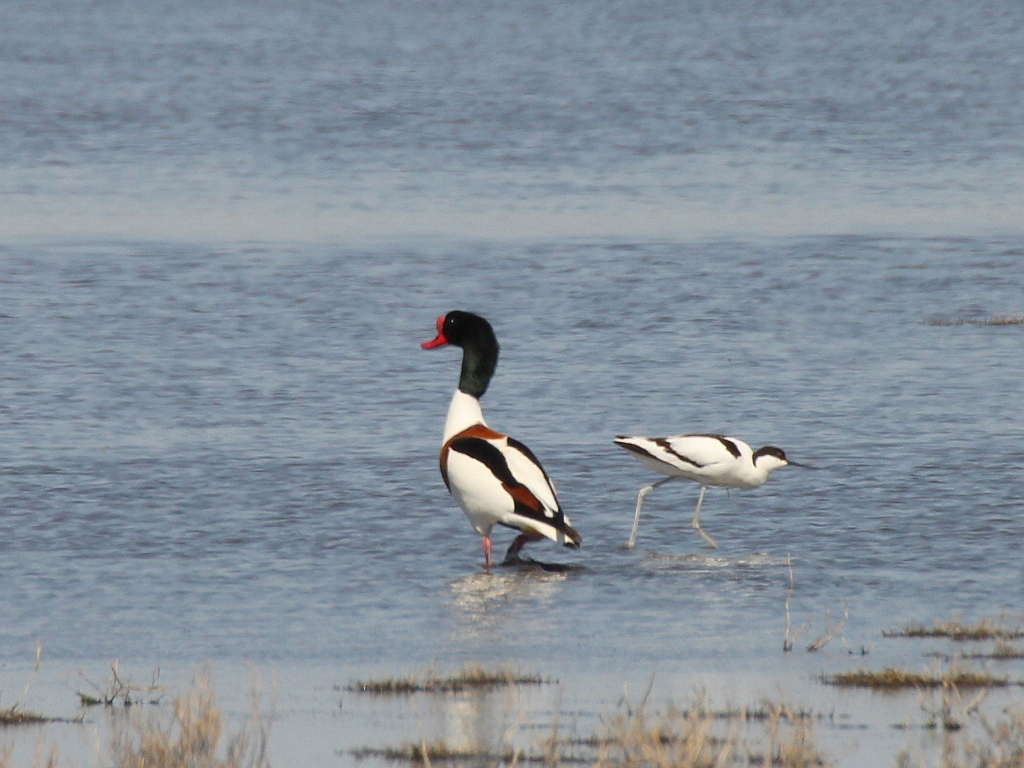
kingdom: Animalia
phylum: Chordata
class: Aves
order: Anseriformes
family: Anatidae
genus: Tadorna
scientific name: Tadorna tadorna
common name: Common shelduck
